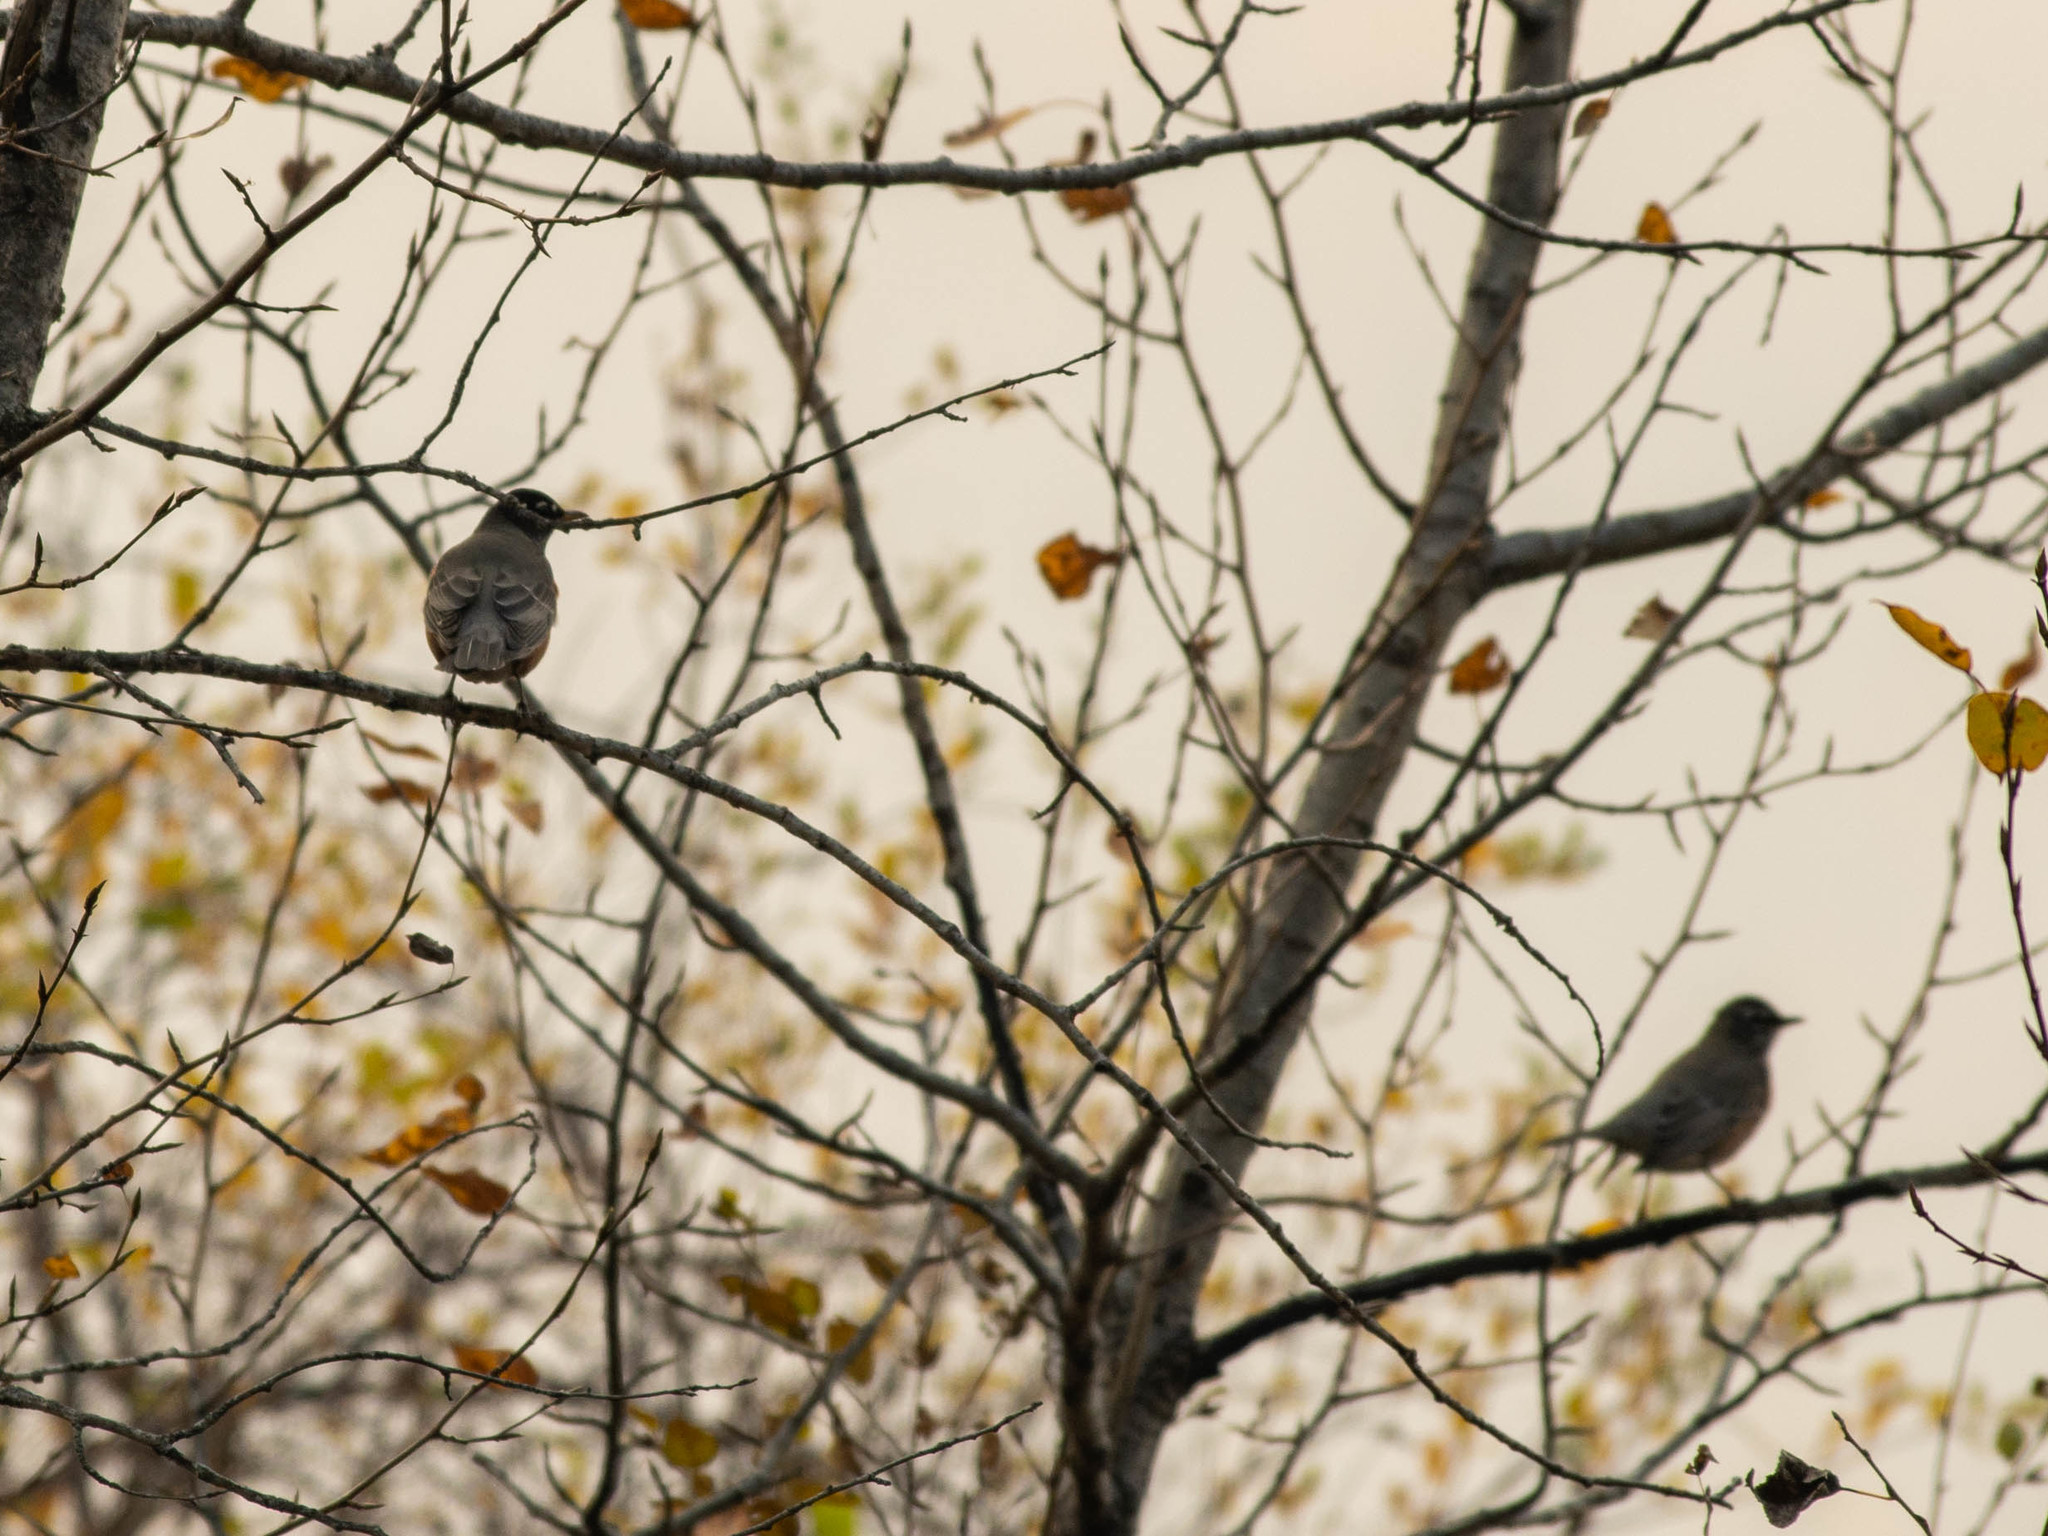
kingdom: Animalia
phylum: Chordata
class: Aves
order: Passeriformes
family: Turdidae
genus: Turdus
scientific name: Turdus migratorius
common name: American robin
